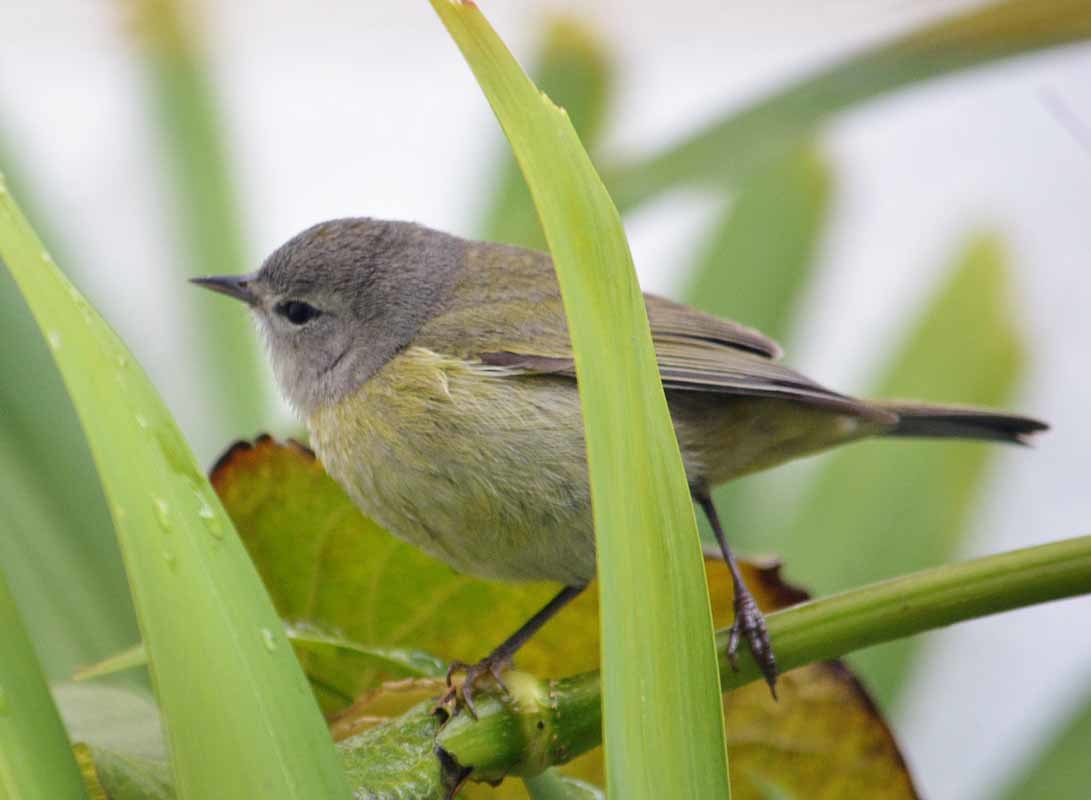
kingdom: Animalia
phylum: Chordata
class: Aves
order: Passeriformes
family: Parulidae
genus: Leiothlypis
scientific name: Leiothlypis celata
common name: Orange-crowned warbler
